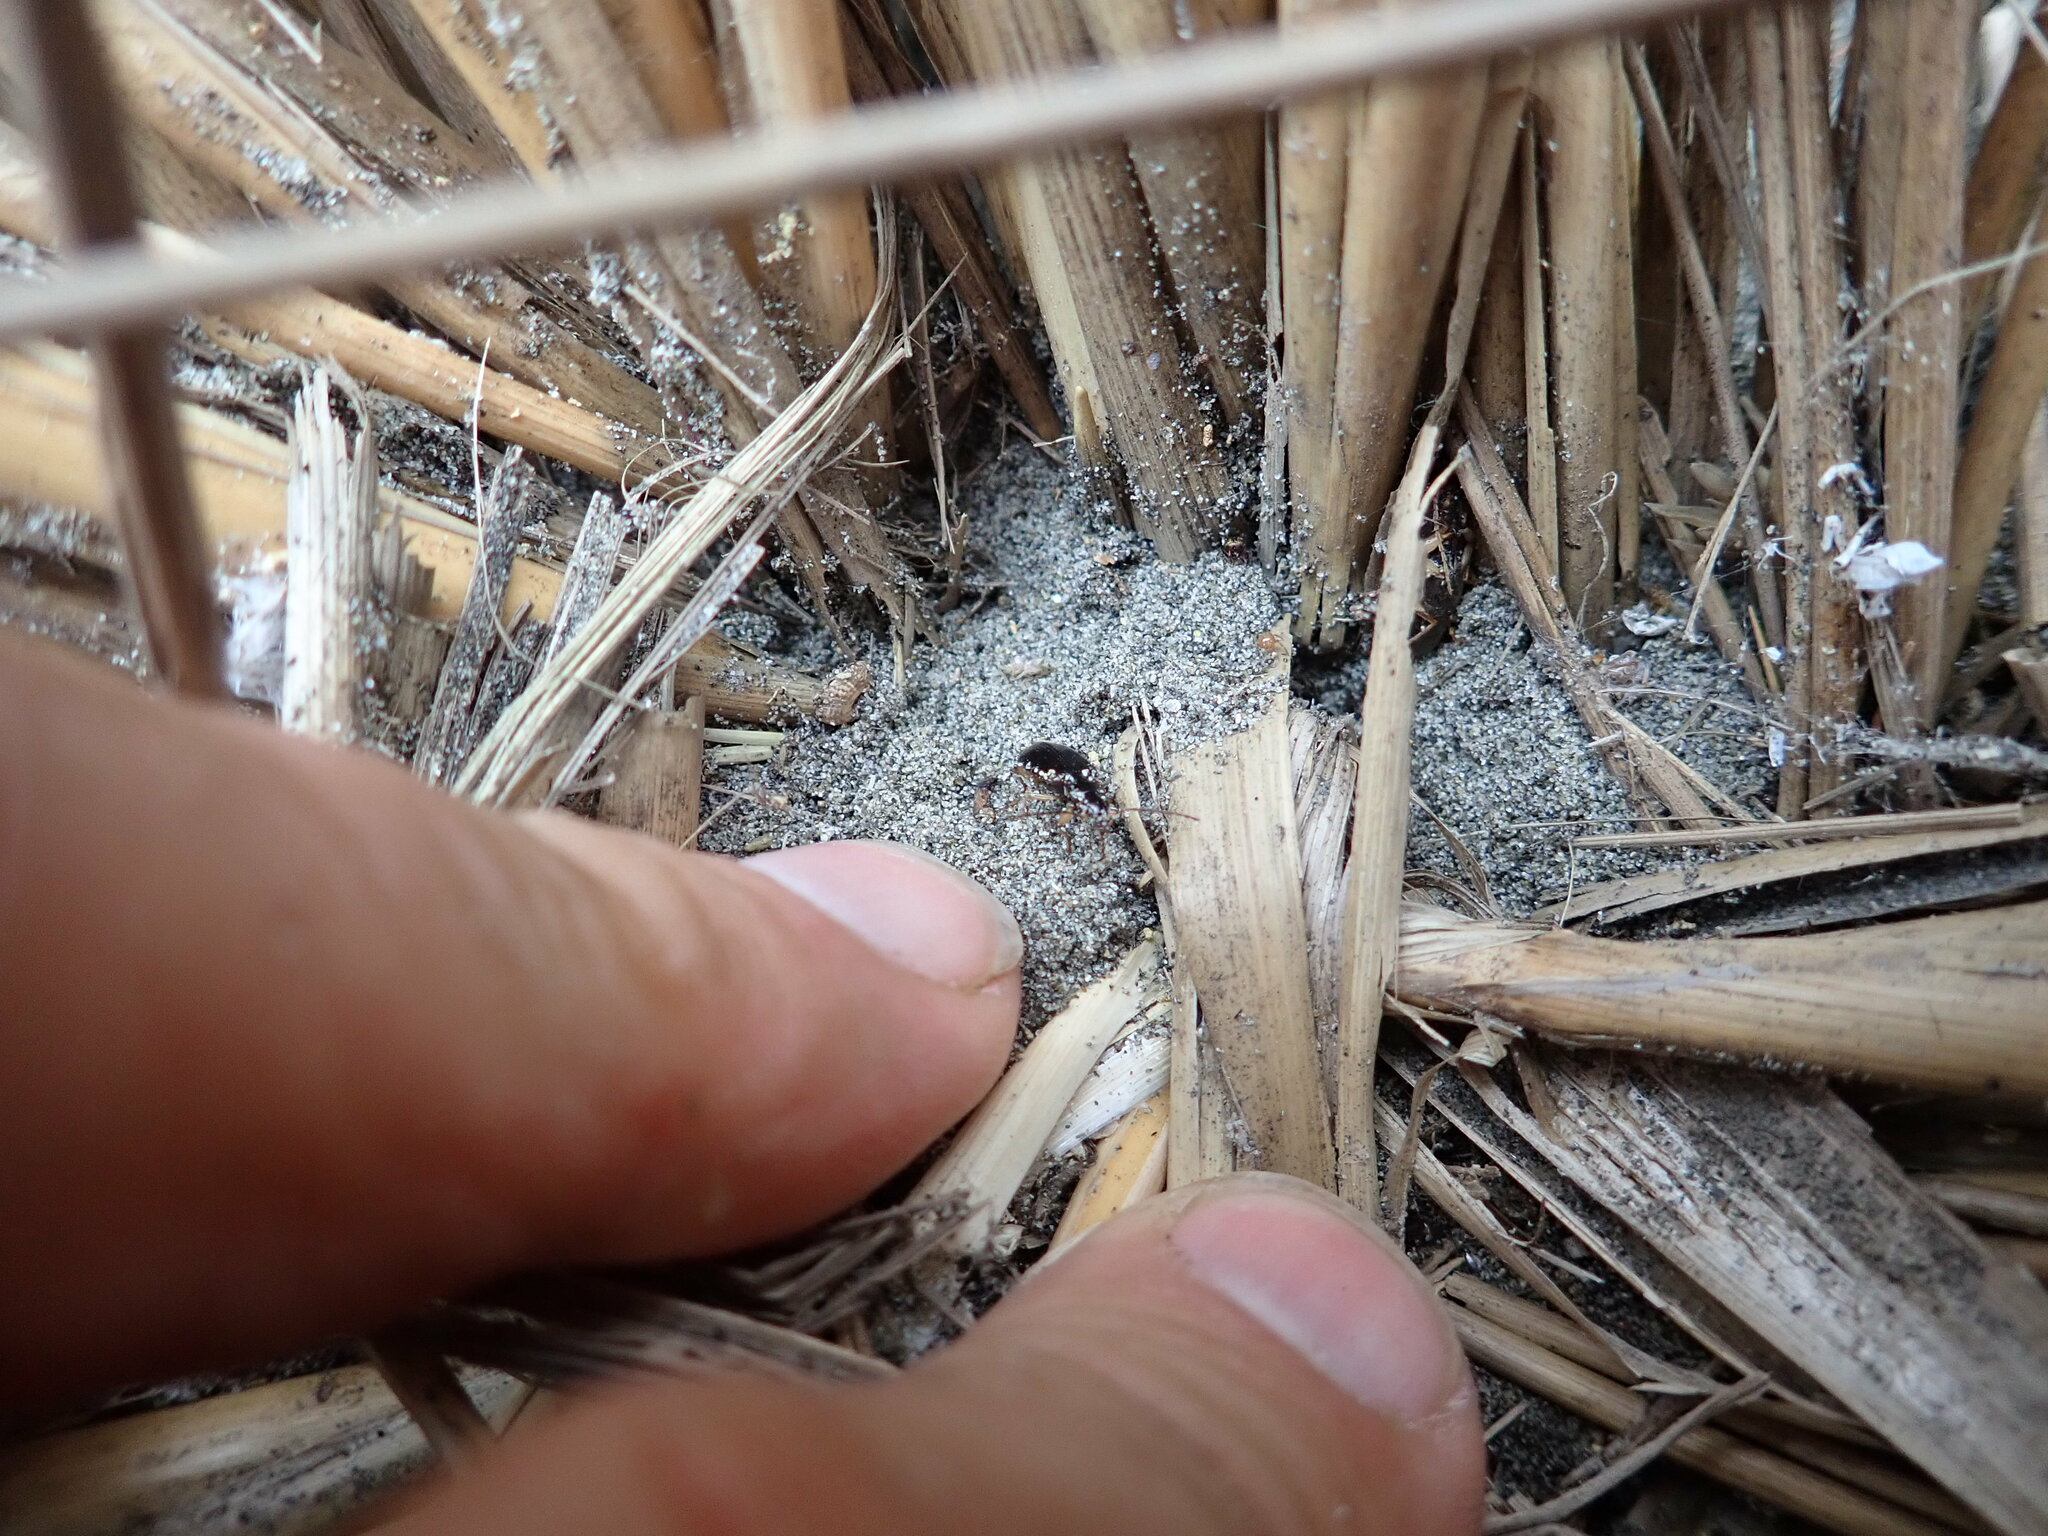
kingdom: Animalia
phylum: Arthropoda
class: Arachnida
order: Araneae
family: Theridiidae
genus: Steatoda
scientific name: Steatoda capensis
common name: Cobweb weaver
